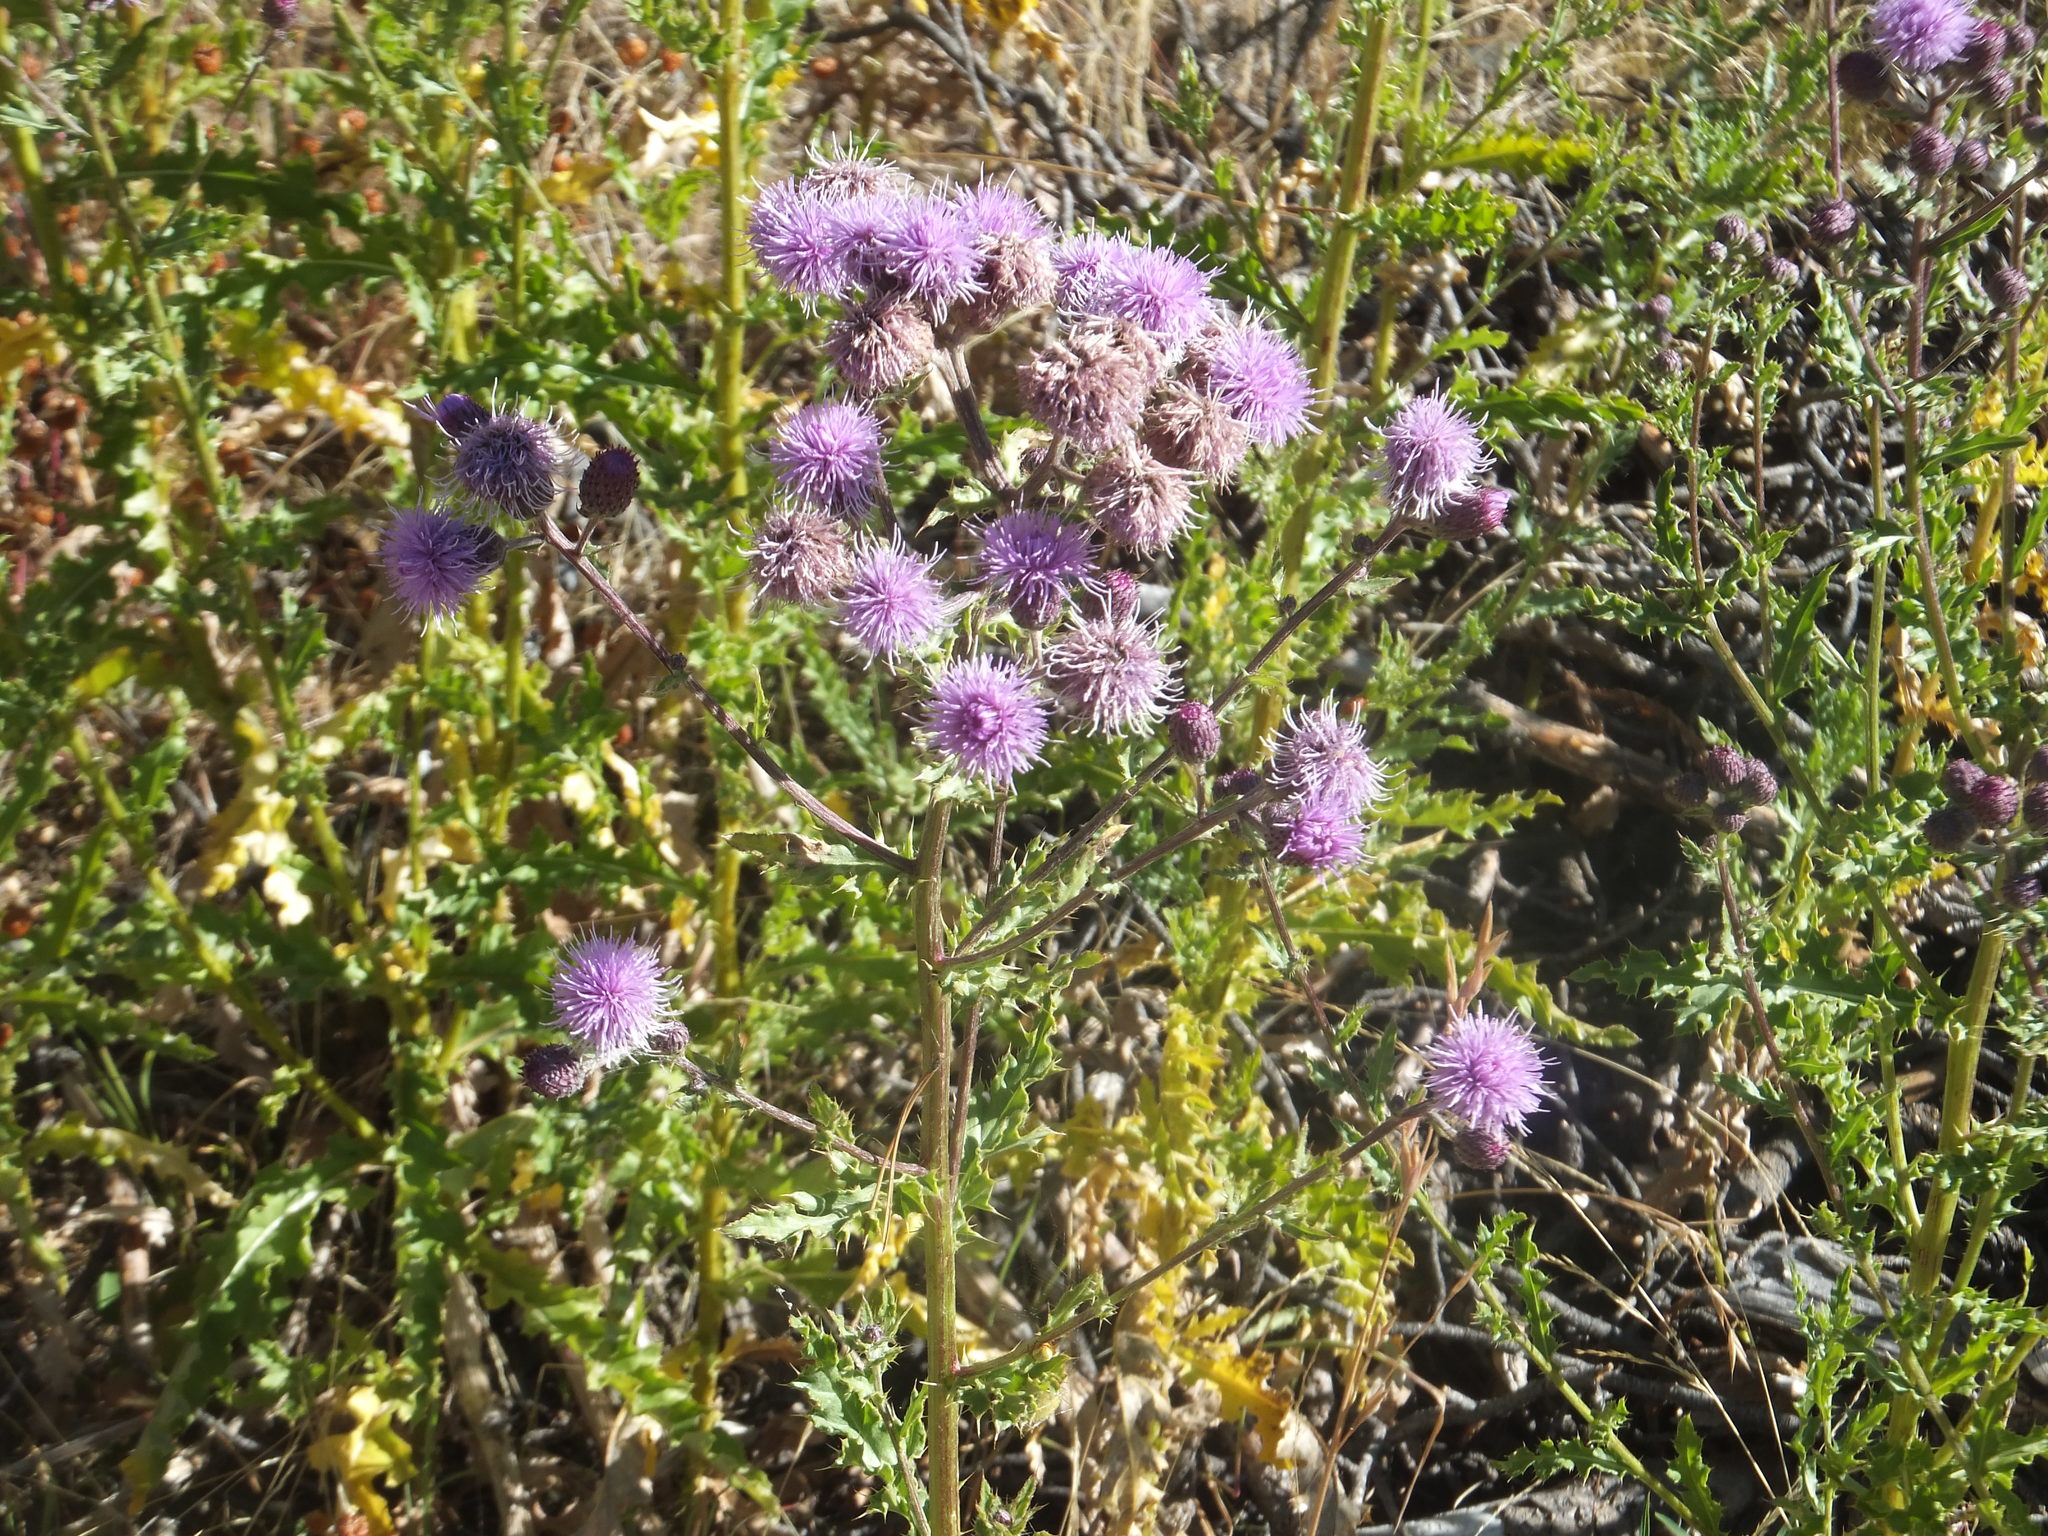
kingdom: Plantae
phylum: Tracheophyta
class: Magnoliopsida
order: Asterales
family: Asteraceae
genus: Cirsium
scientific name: Cirsium arvense
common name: Creeping thistle
